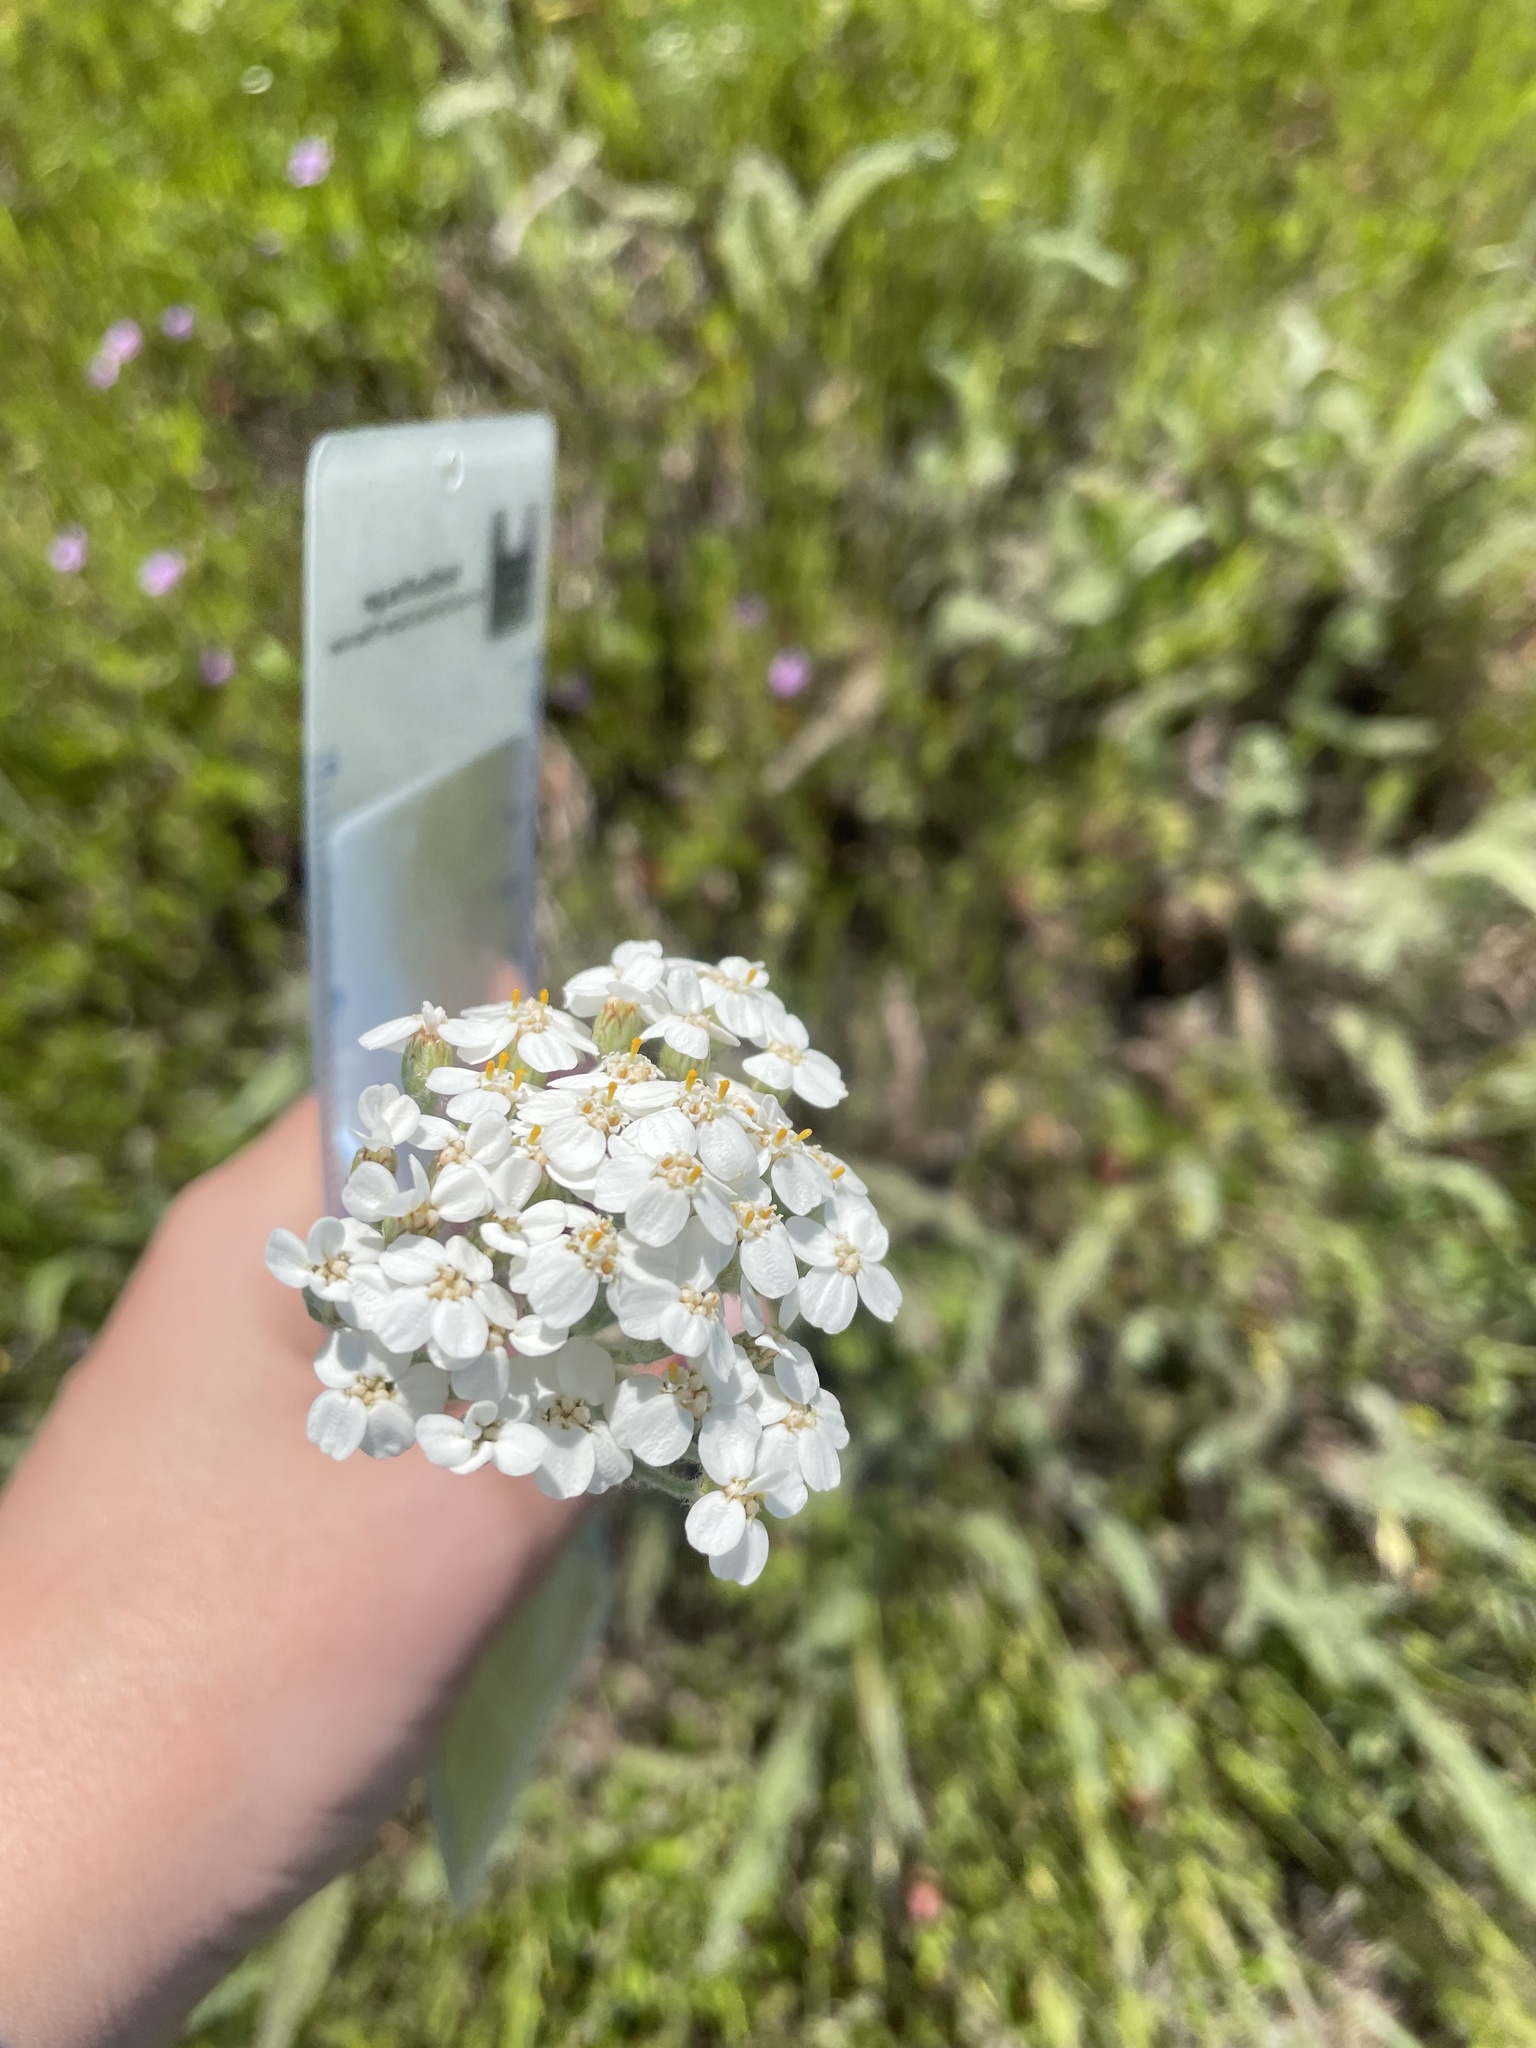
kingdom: Plantae
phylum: Tracheophyta
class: Magnoliopsida
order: Asterales
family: Asteraceae
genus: Achillea
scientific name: Achillea millefolium
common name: Yarrow
